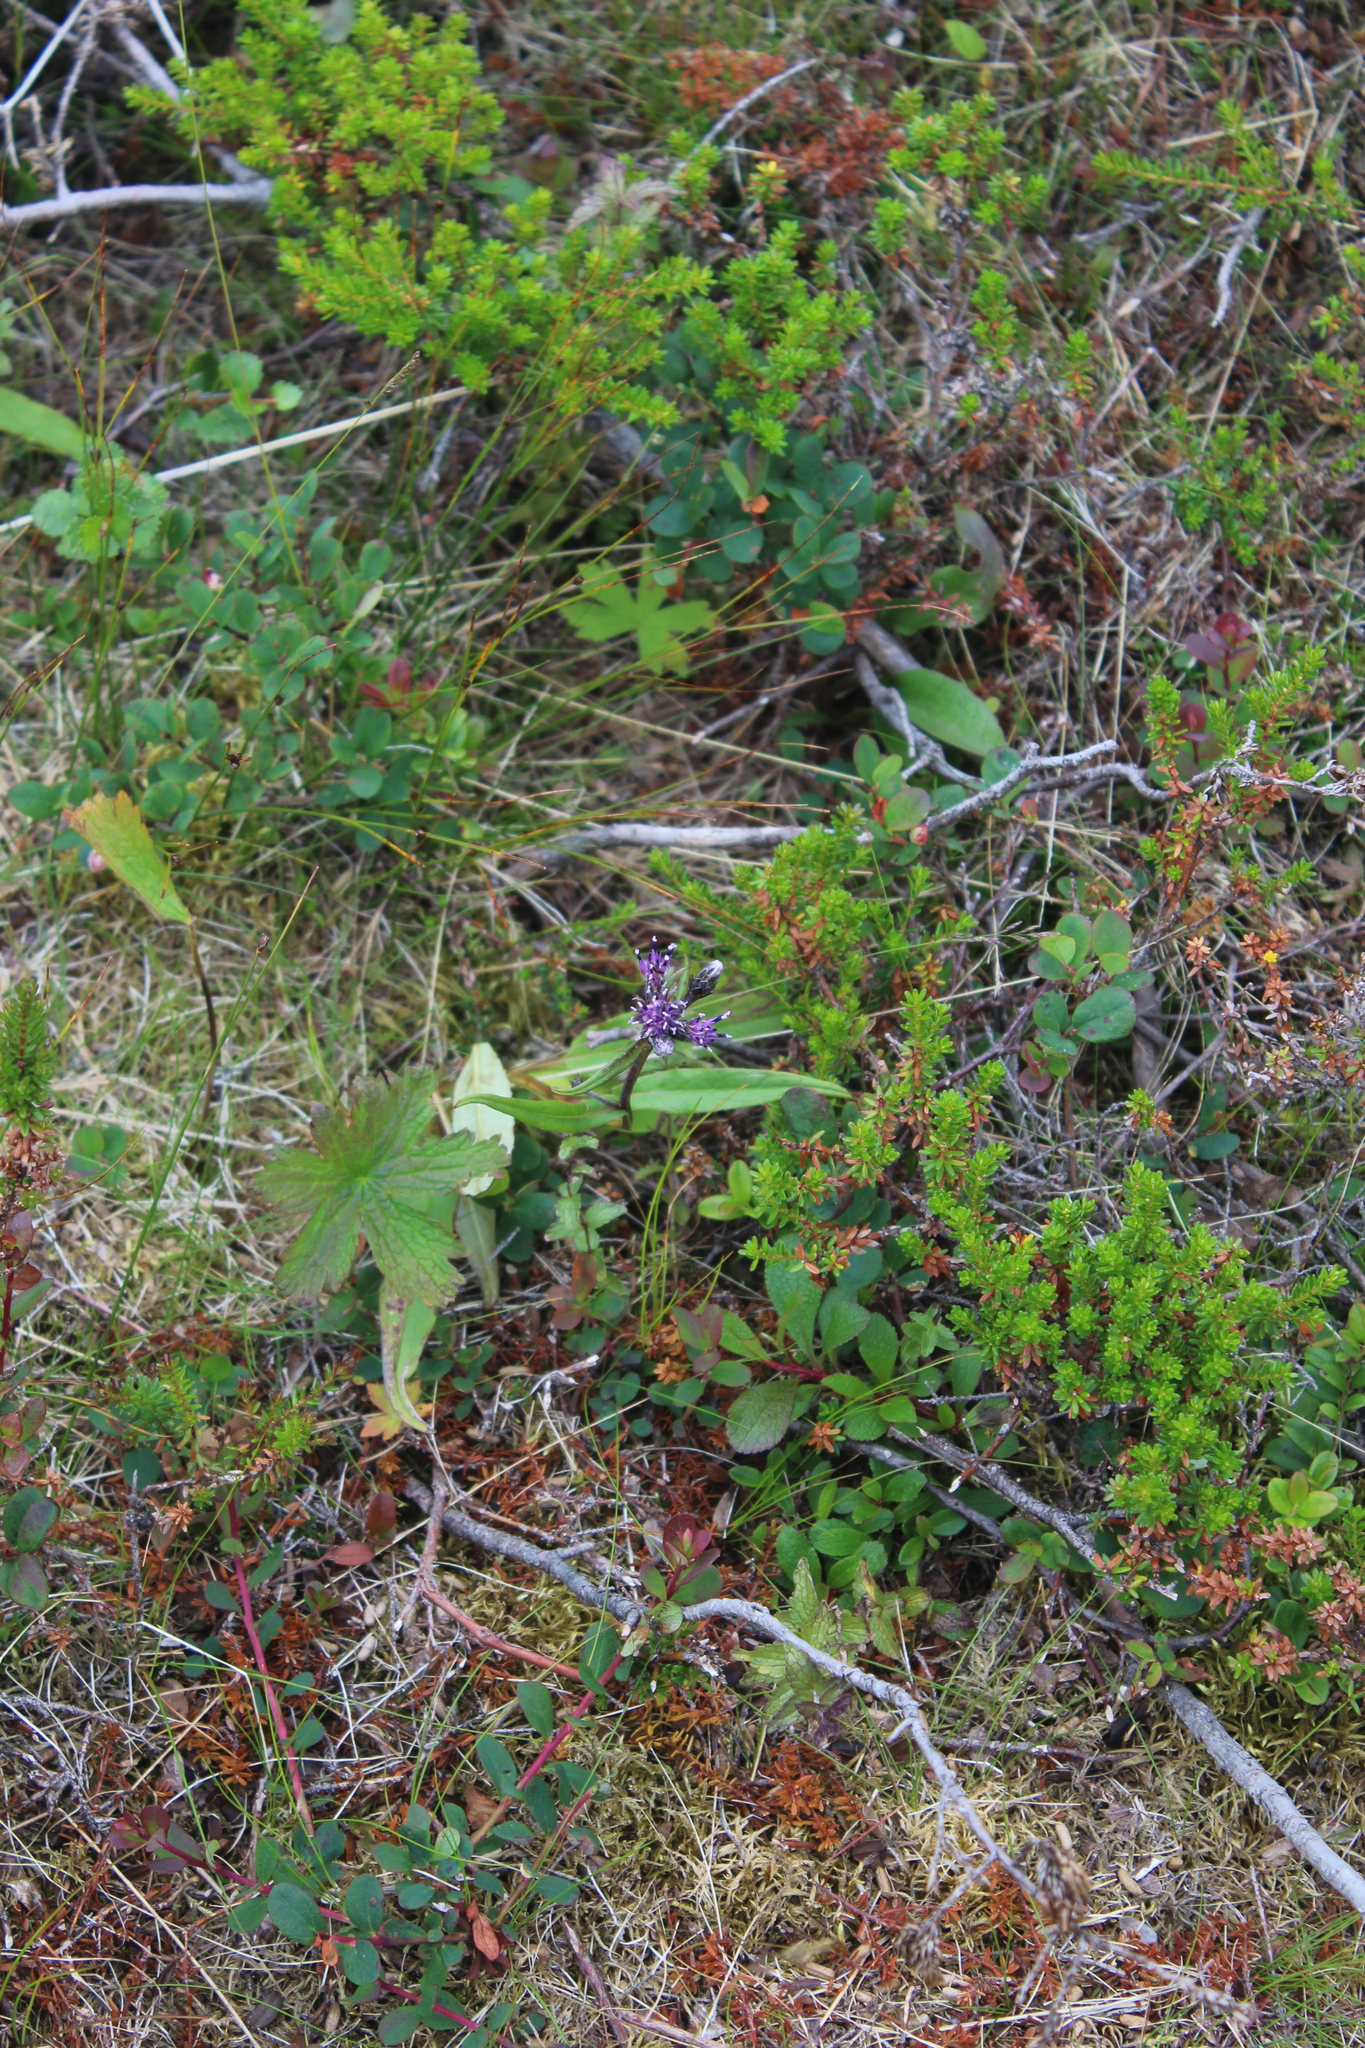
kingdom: Plantae
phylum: Tracheophyta
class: Magnoliopsida
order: Asterales
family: Asteraceae
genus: Saussurea
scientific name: Saussurea alpina
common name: Alpine saw-wort
